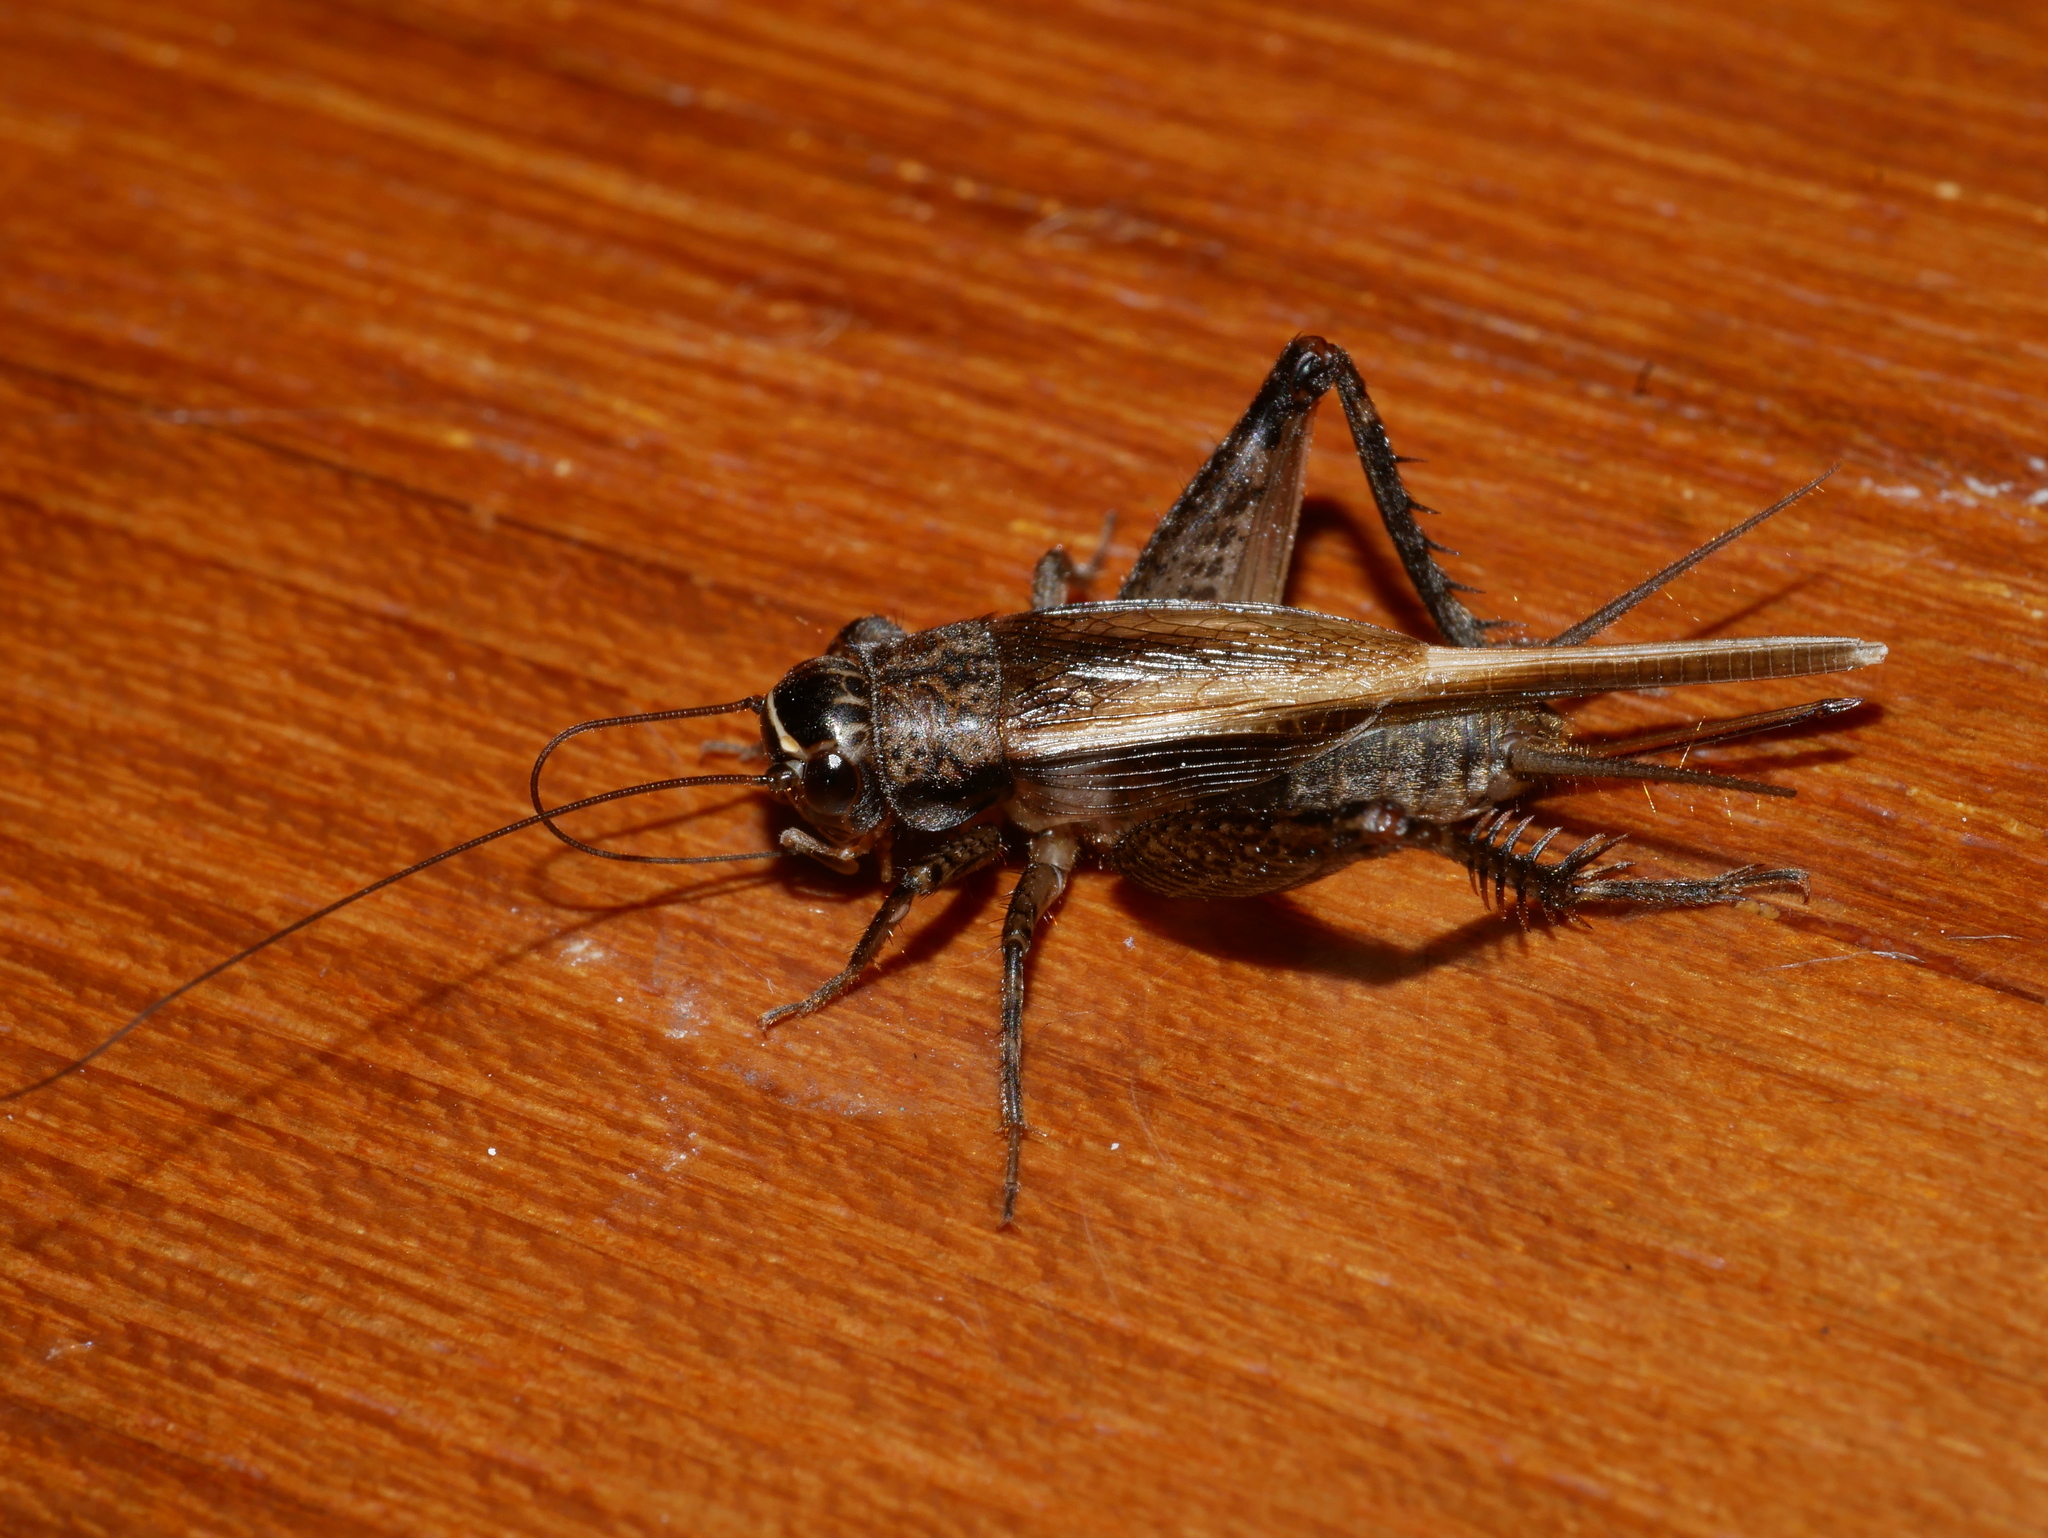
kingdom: Animalia
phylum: Arthropoda
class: Insecta
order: Orthoptera
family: Gryllidae
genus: Loxoblemmus
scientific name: Loxoblemmus equestris
